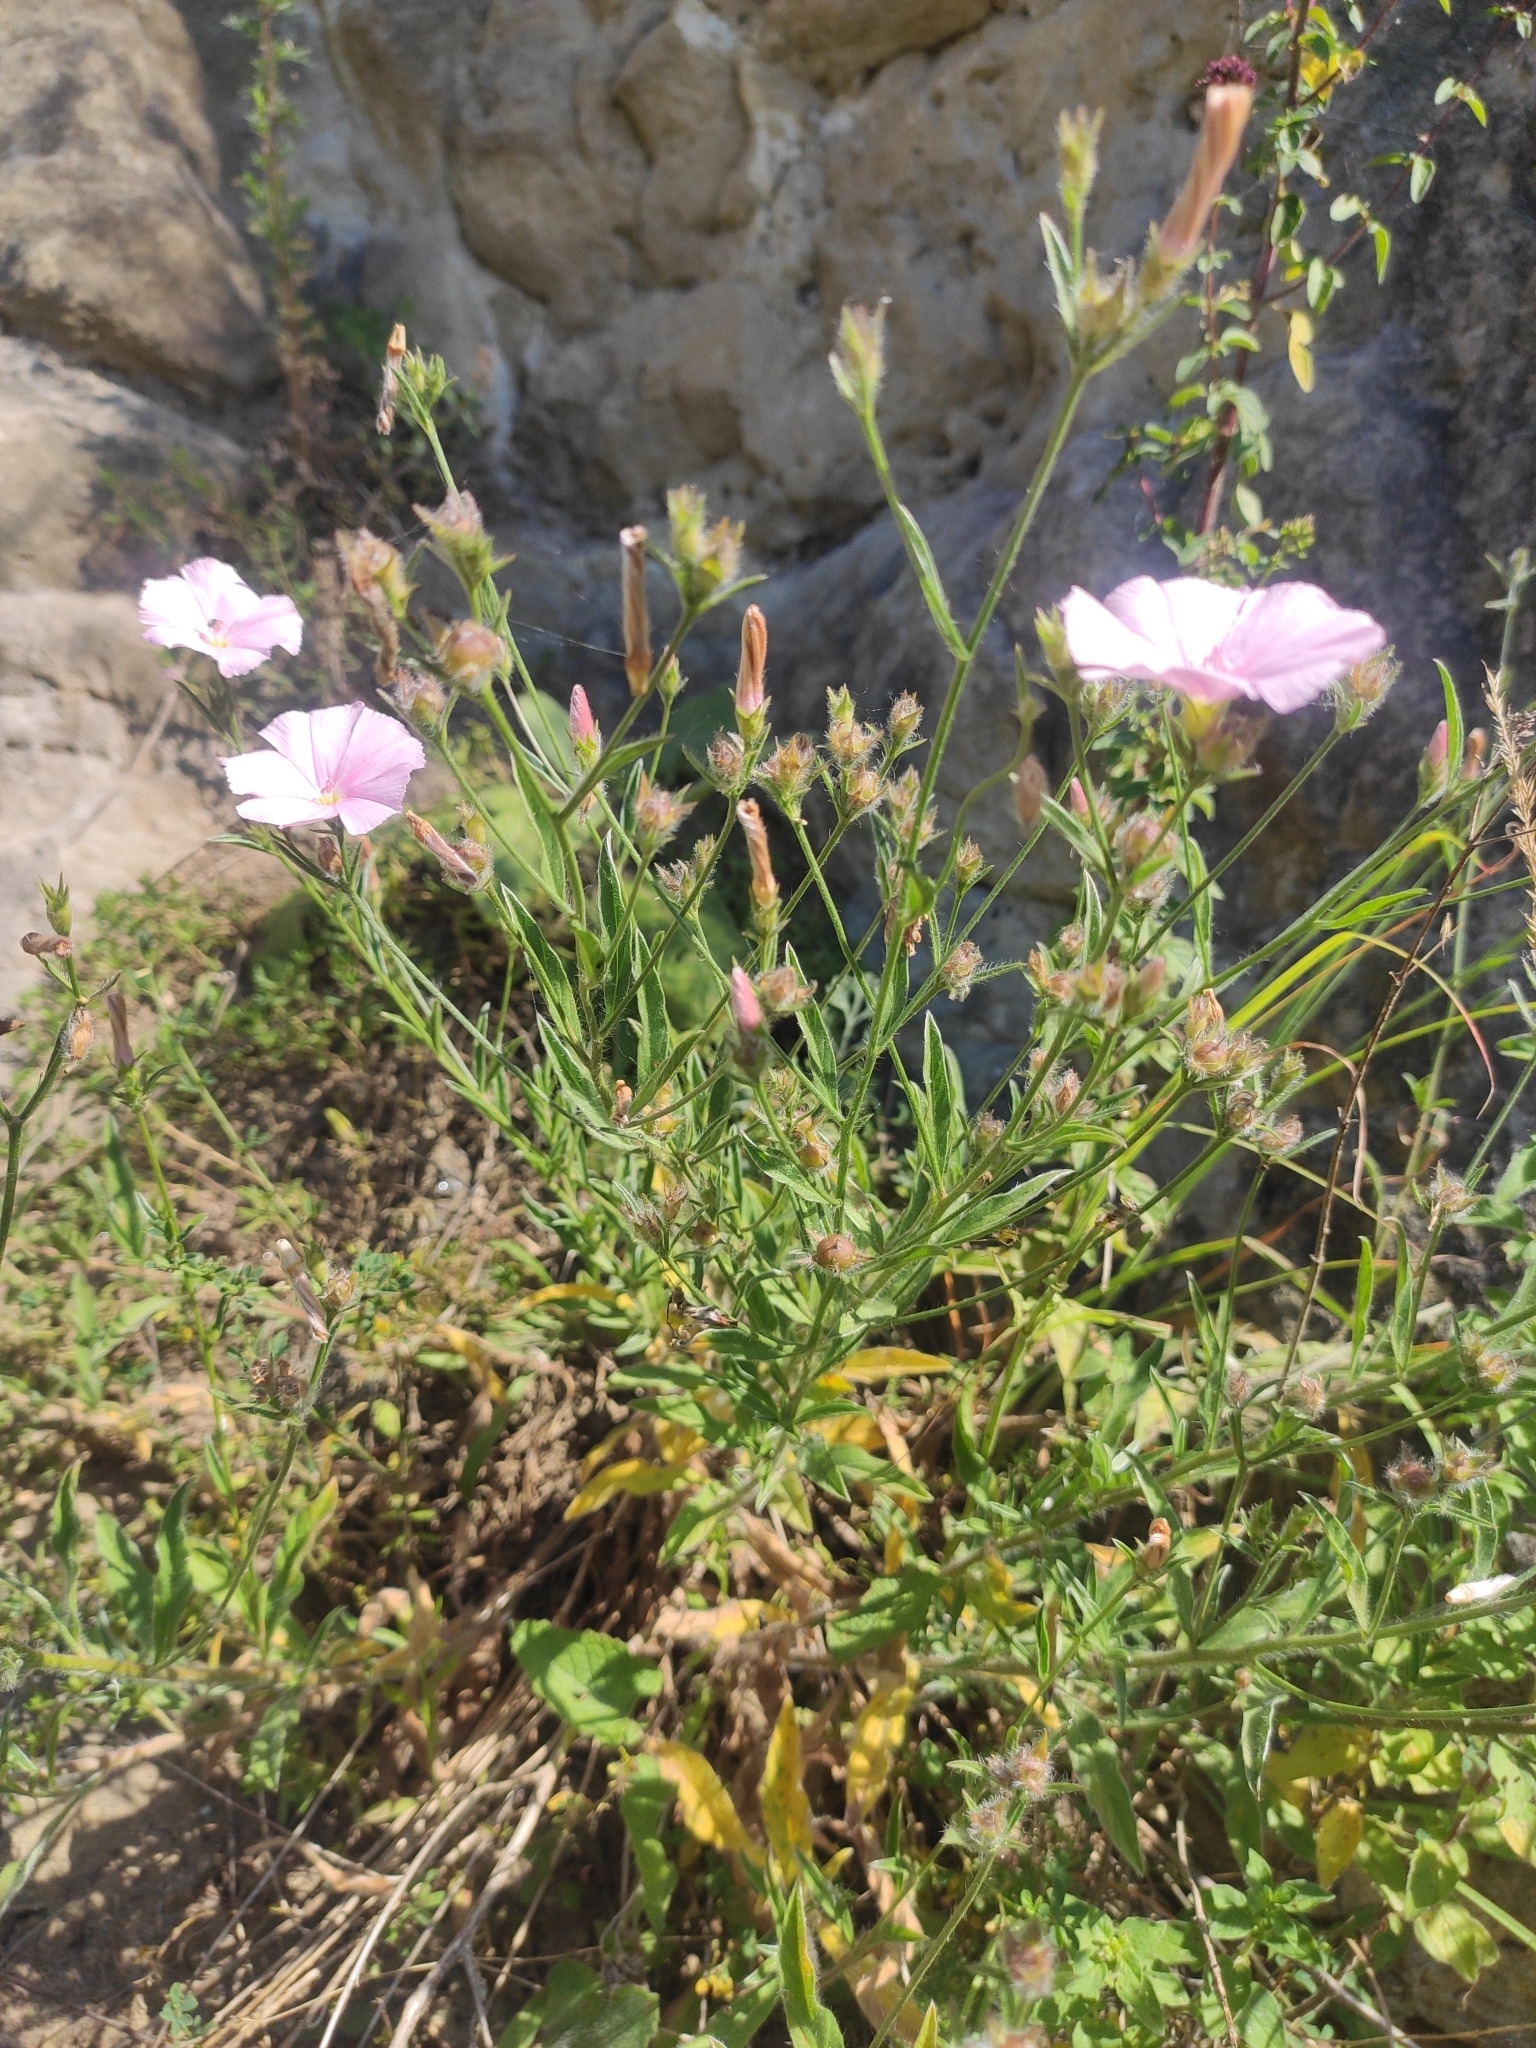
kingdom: Plantae
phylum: Tracheophyta
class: Magnoliopsida
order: Solanales
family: Convolvulaceae
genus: Convolvulus
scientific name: Convolvulus cantabrica
